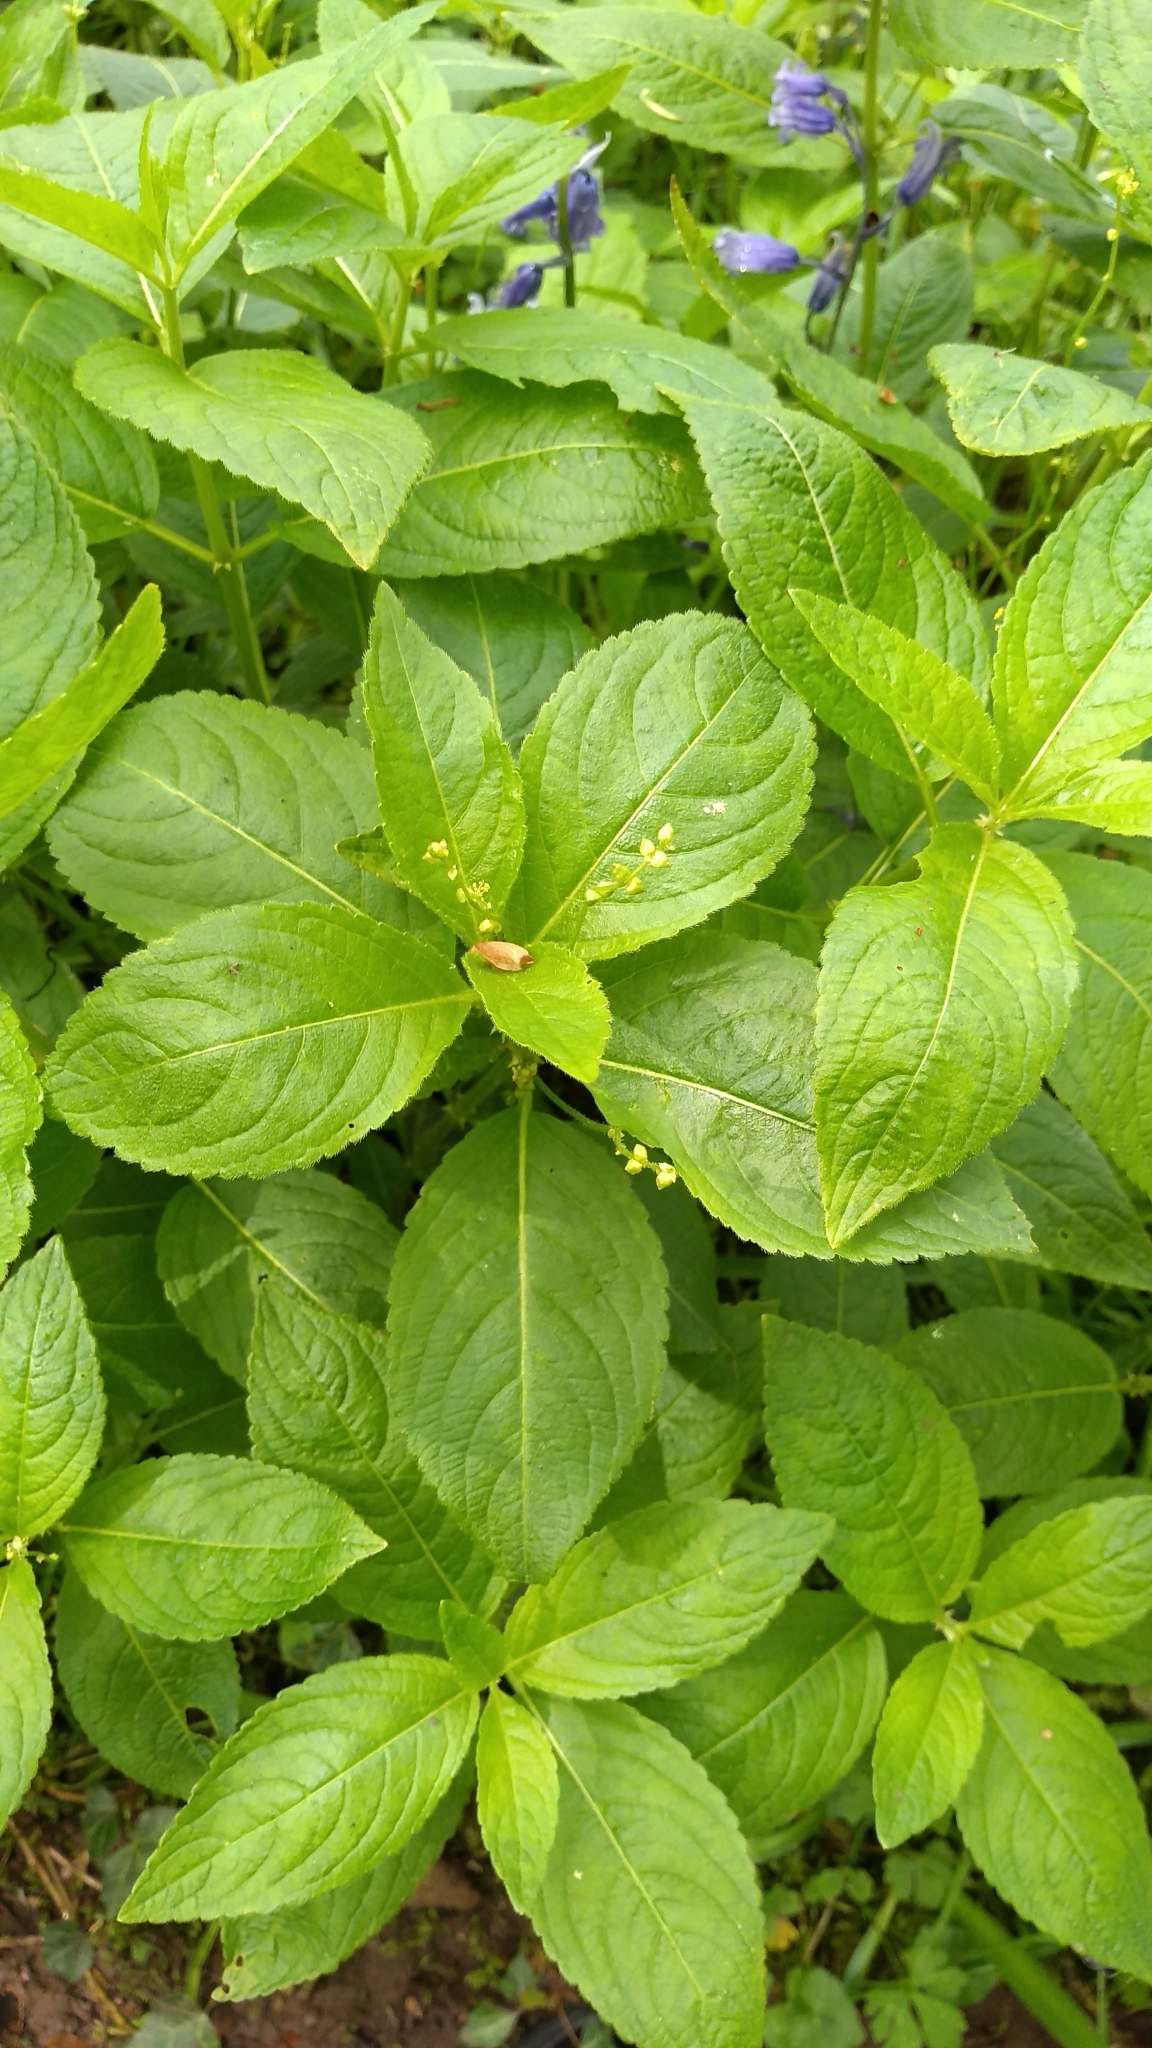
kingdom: Plantae
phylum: Tracheophyta
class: Magnoliopsida
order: Malpighiales
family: Euphorbiaceae
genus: Mercurialis
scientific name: Mercurialis perennis
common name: Dog mercury
